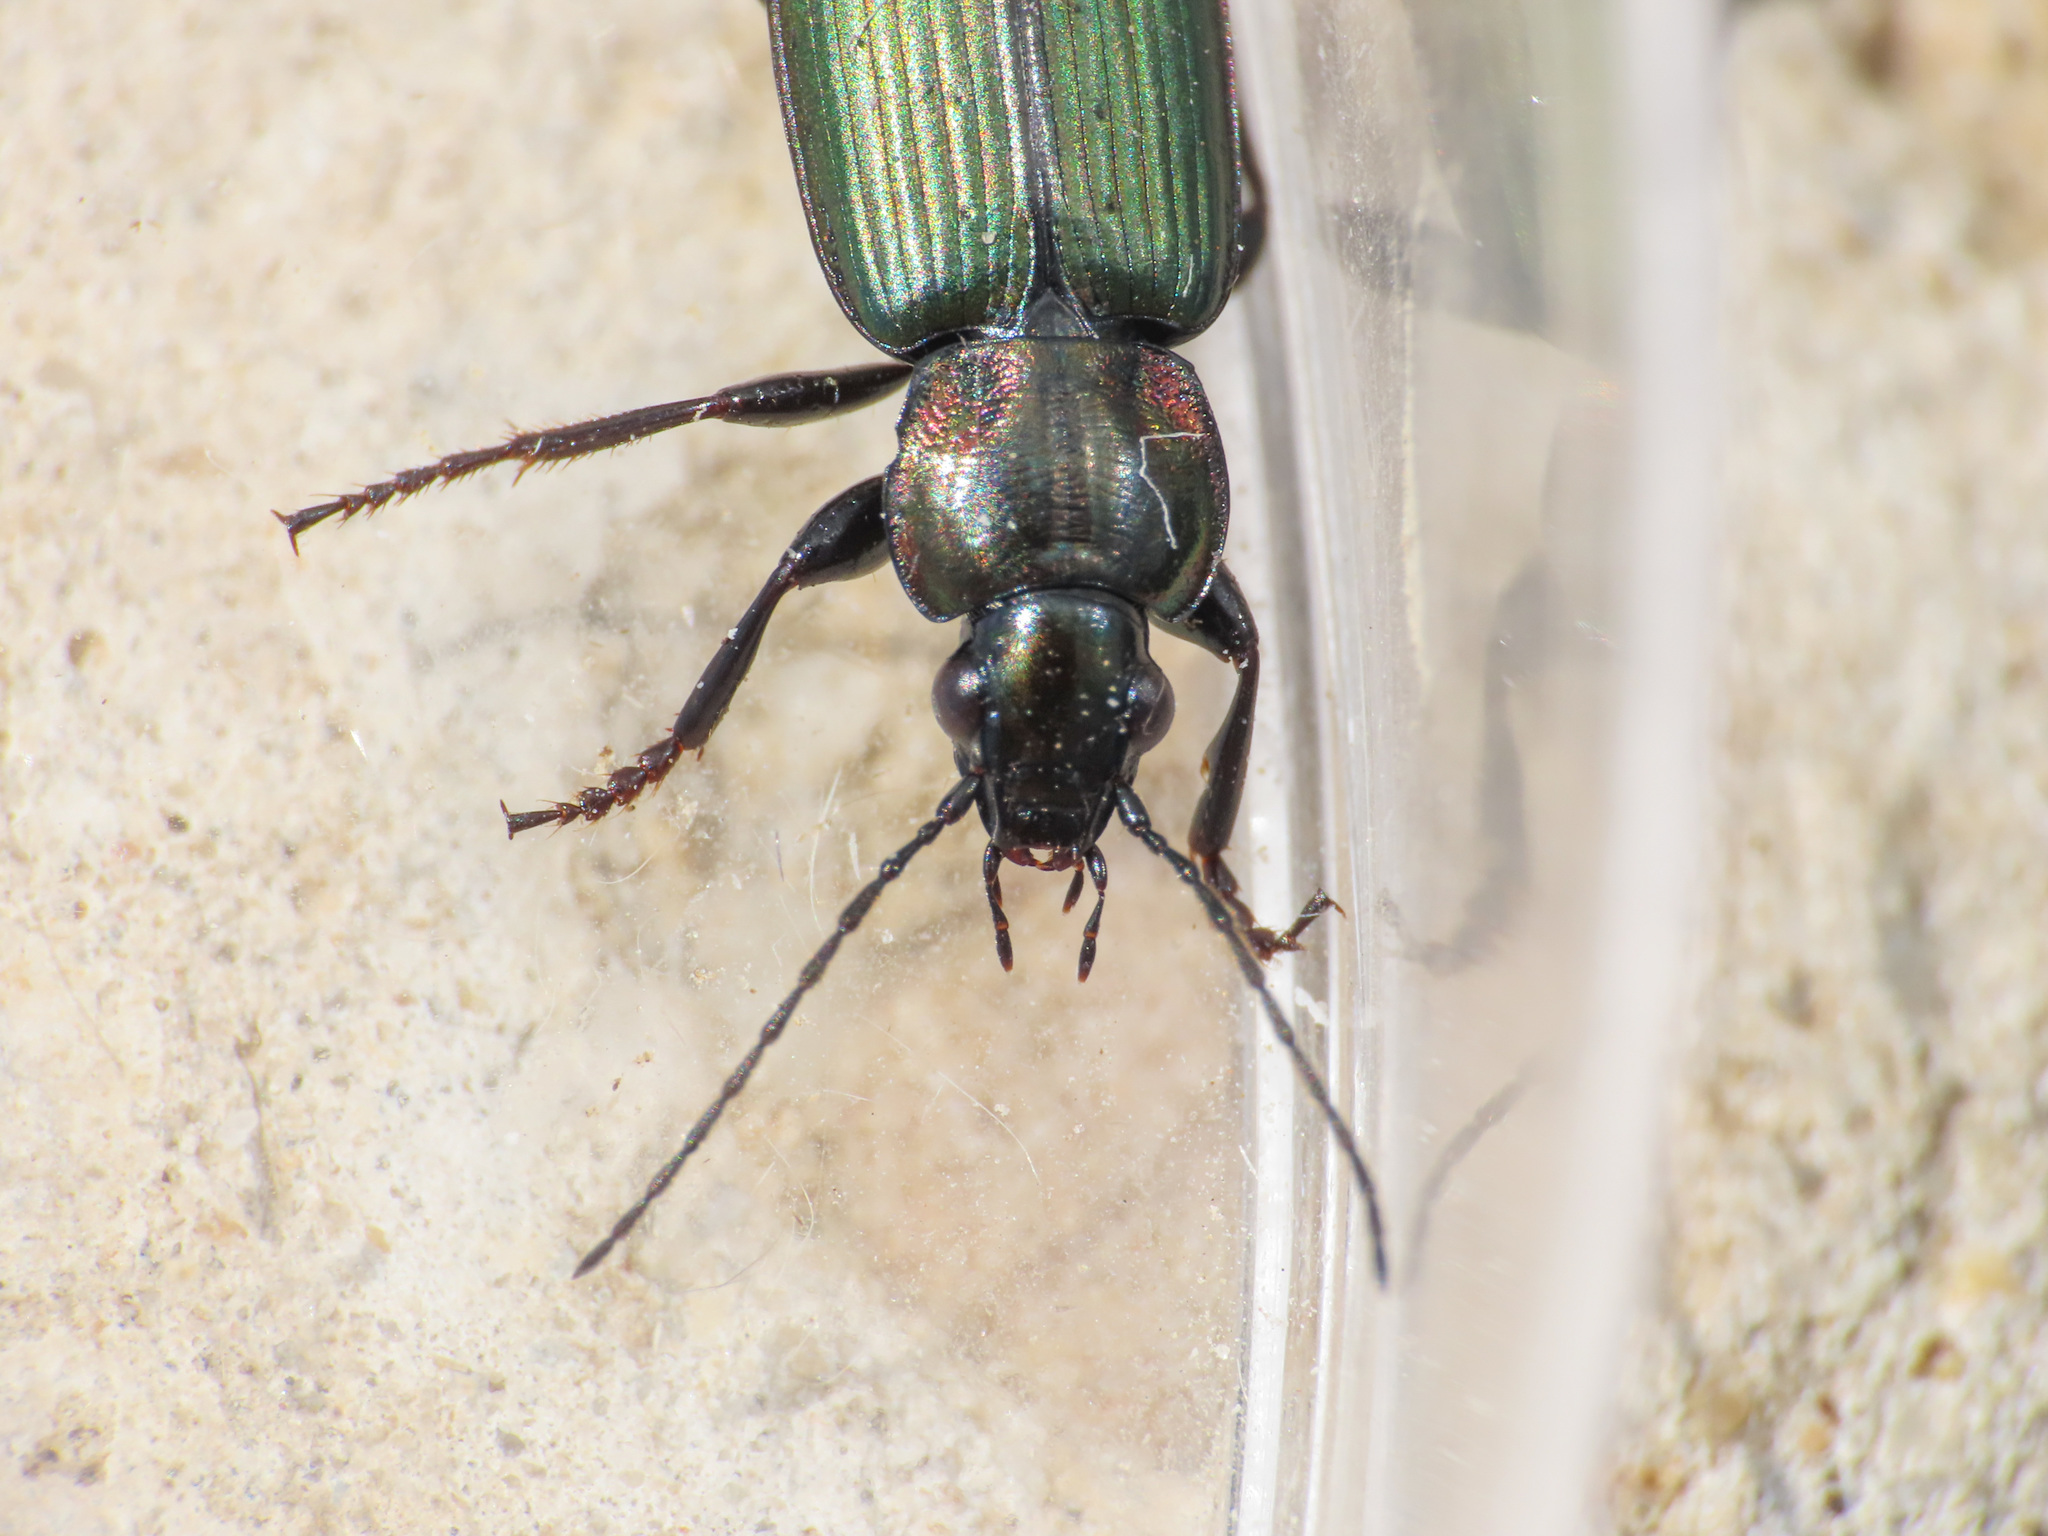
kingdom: Animalia
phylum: Arthropoda
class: Insecta
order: Coleoptera
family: Carabidae
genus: Agonum
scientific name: Agonum viridicupreum
